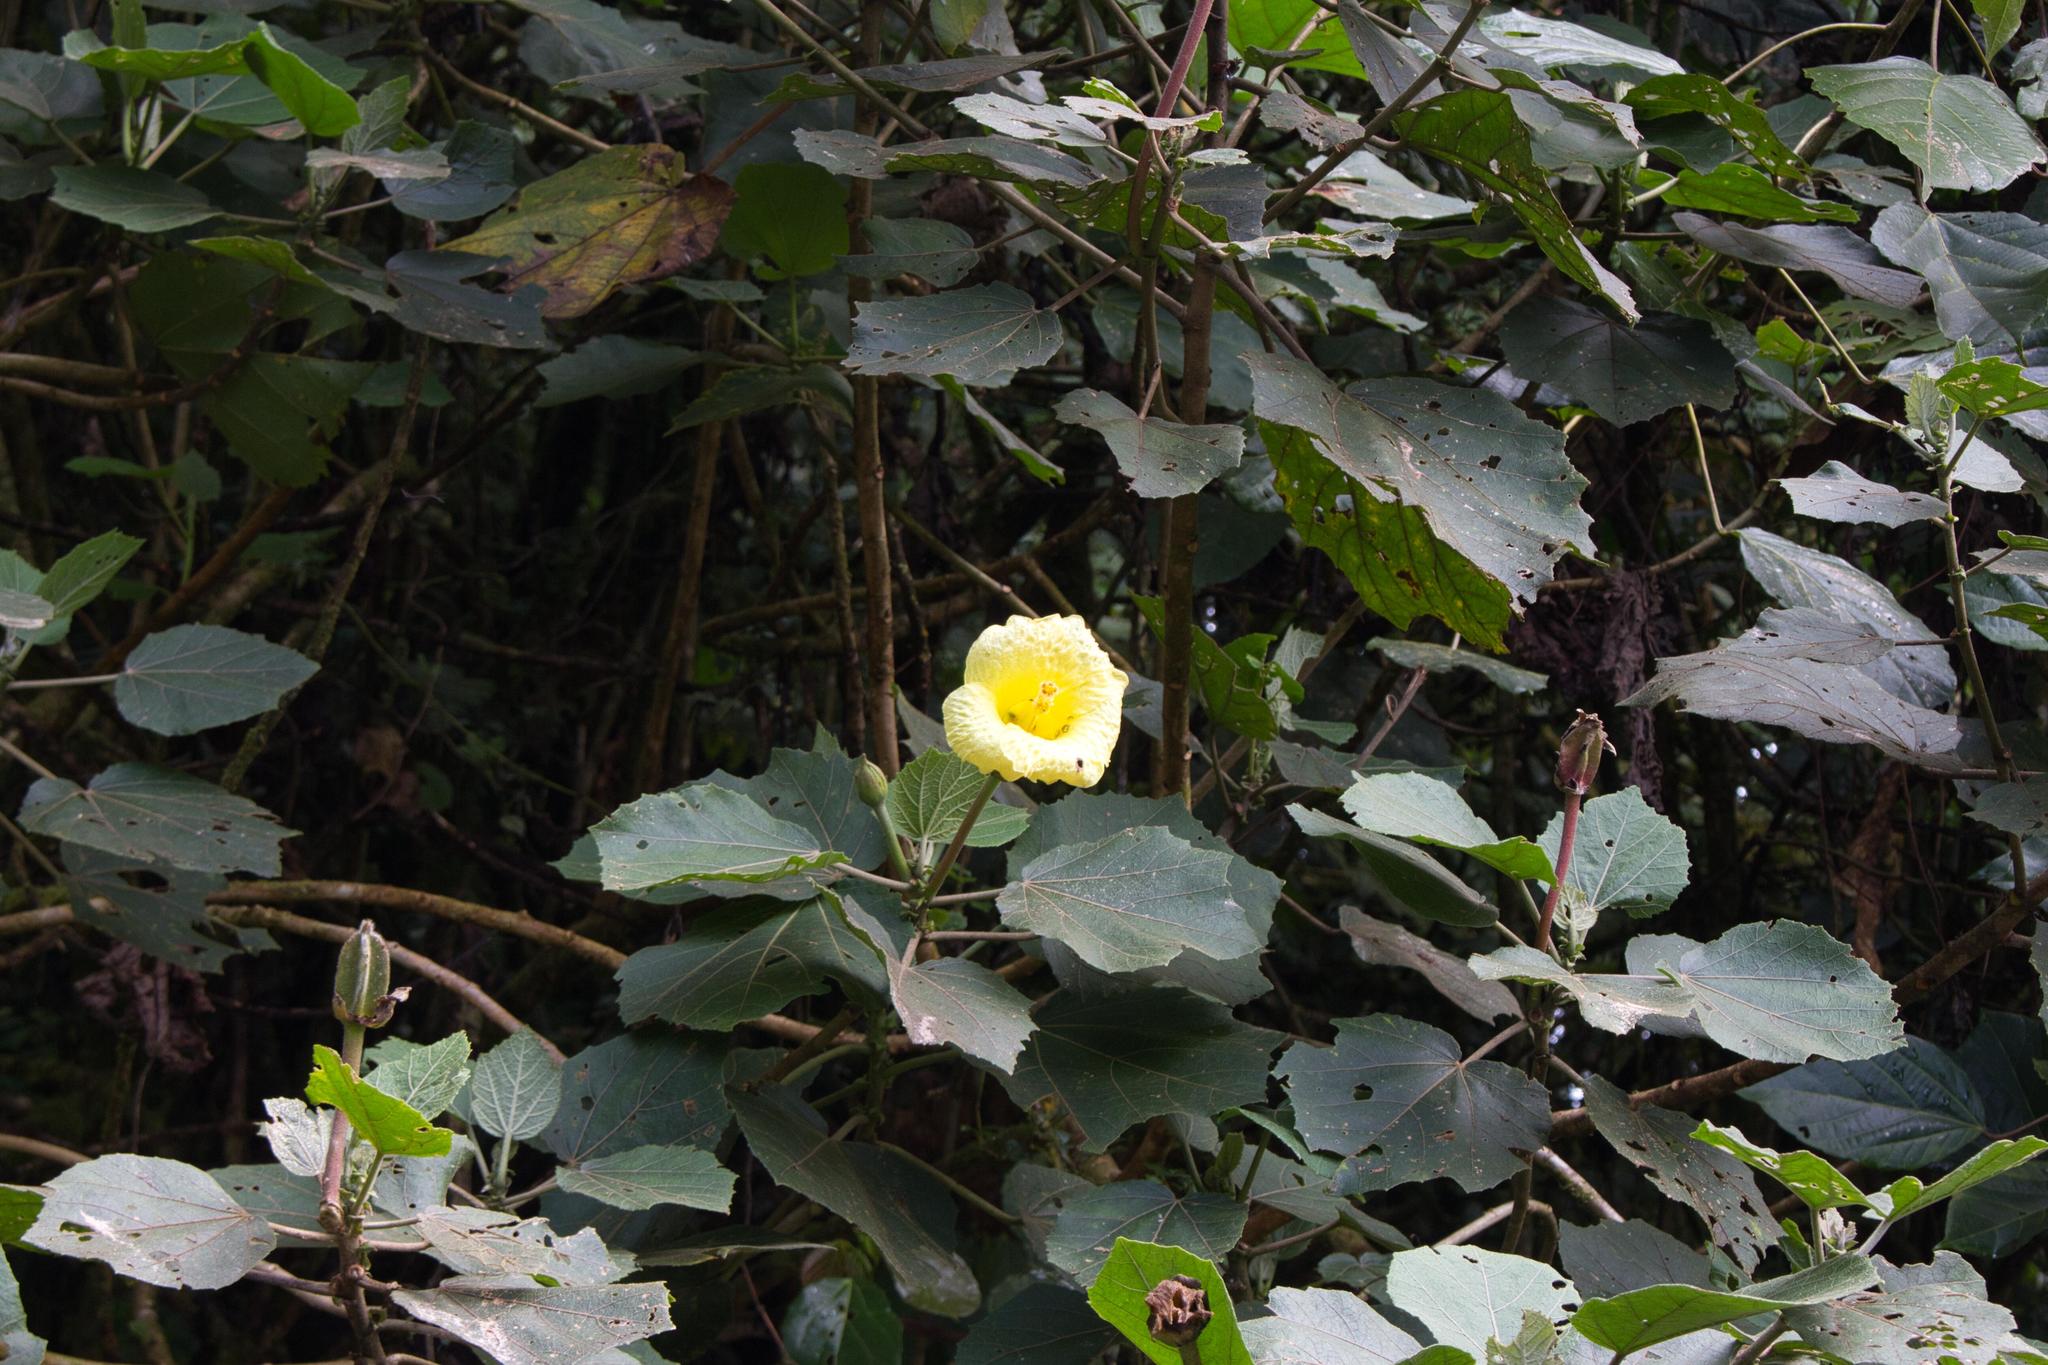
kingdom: Plantae
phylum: Tracheophyta
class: Magnoliopsida
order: Malvales
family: Malvaceae
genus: Wercklea
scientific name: Wercklea lutea
